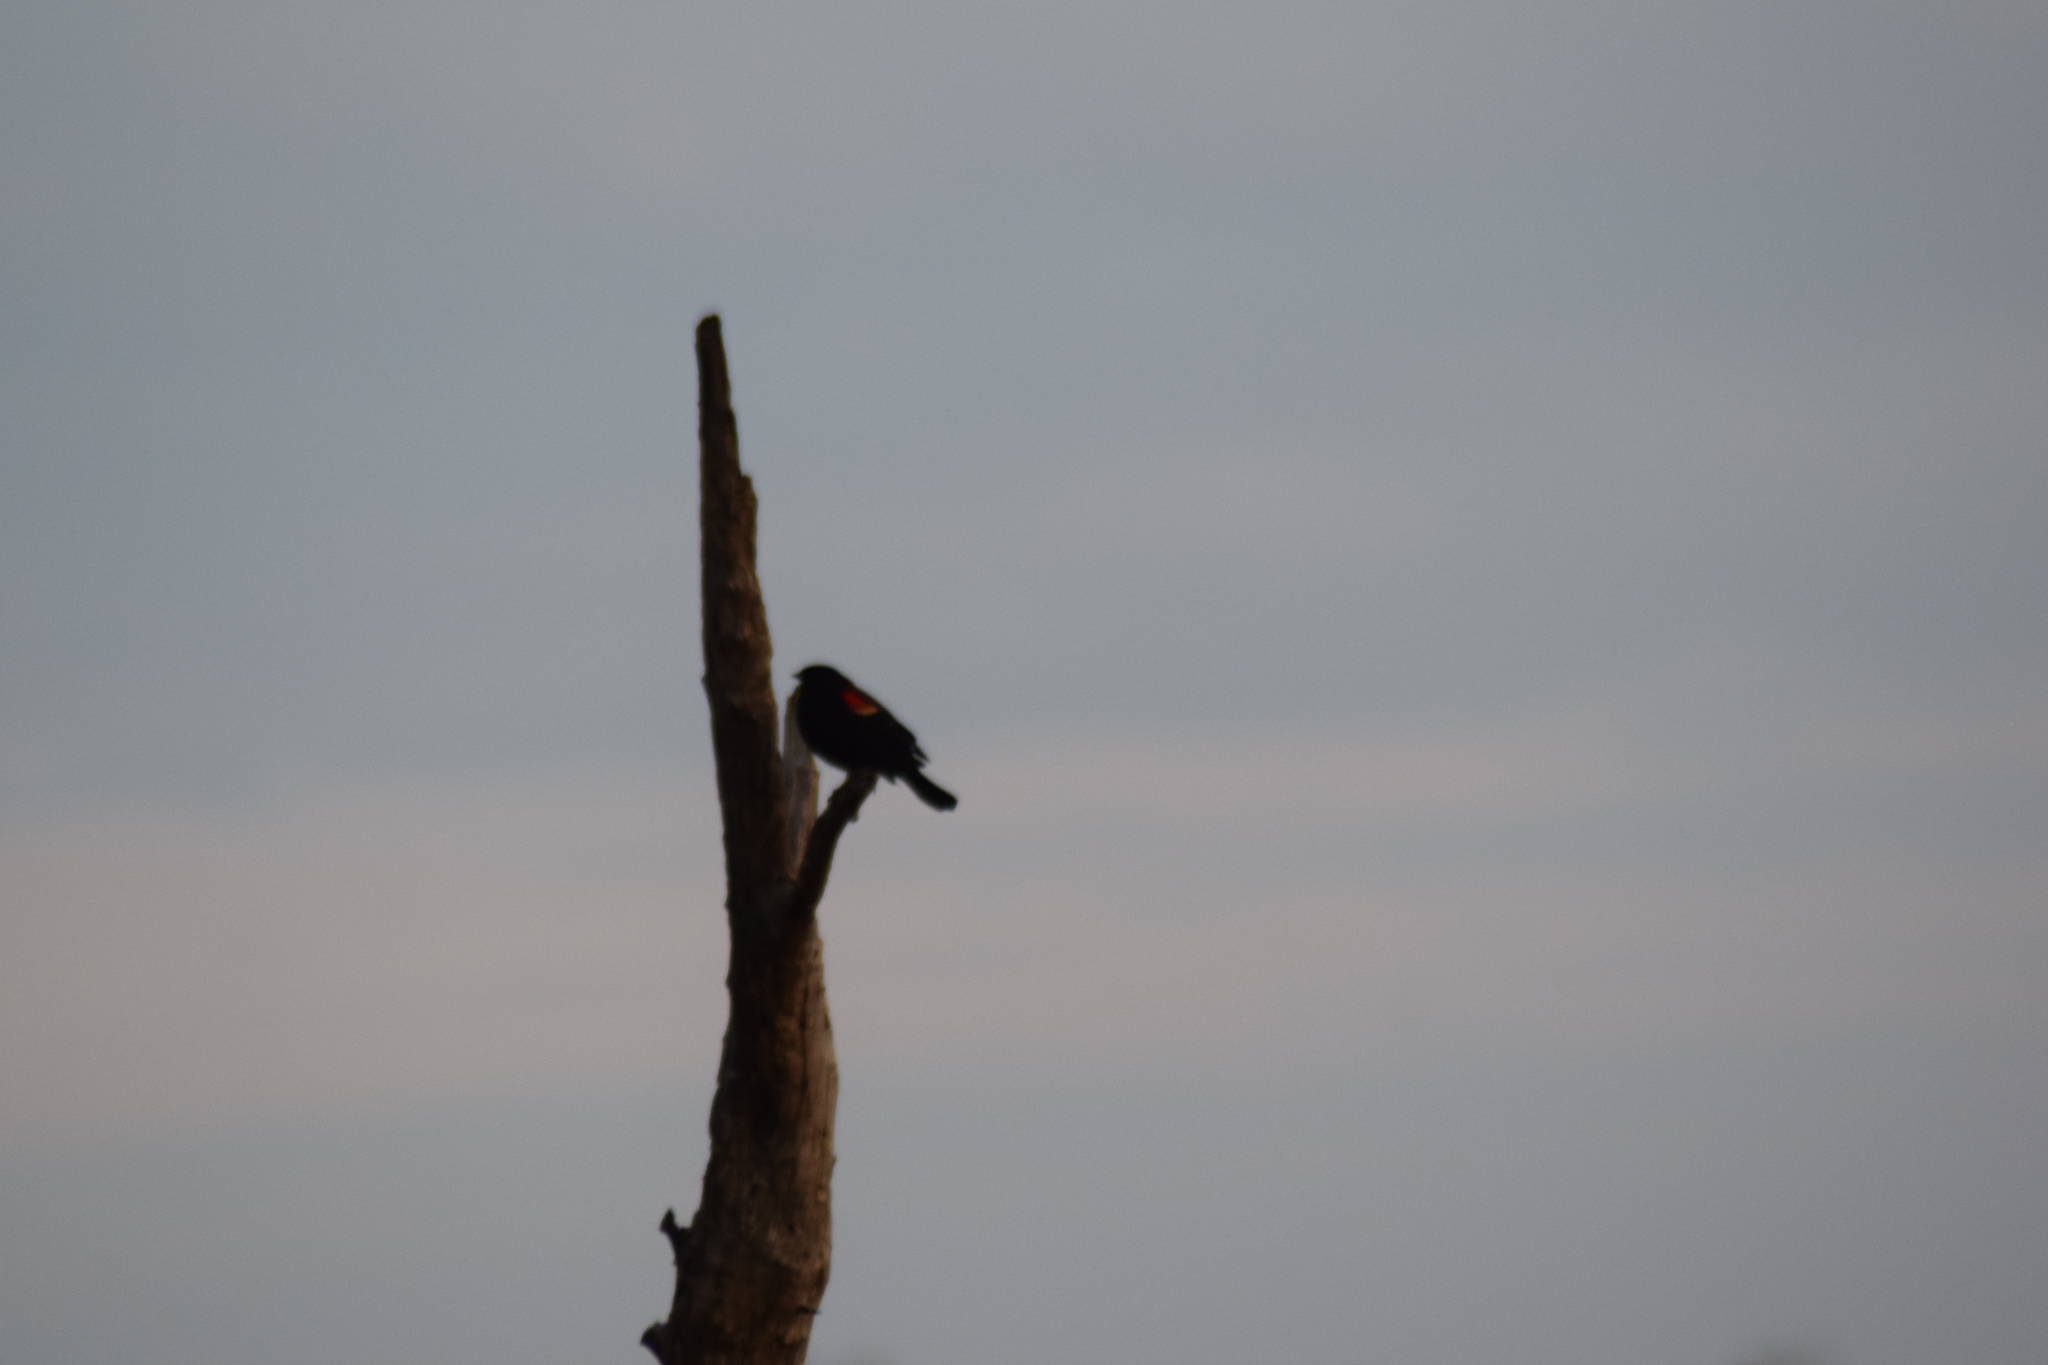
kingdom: Animalia
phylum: Chordata
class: Aves
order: Passeriformes
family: Icteridae
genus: Agelaius
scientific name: Agelaius phoeniceus
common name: Red-winged blackbird
